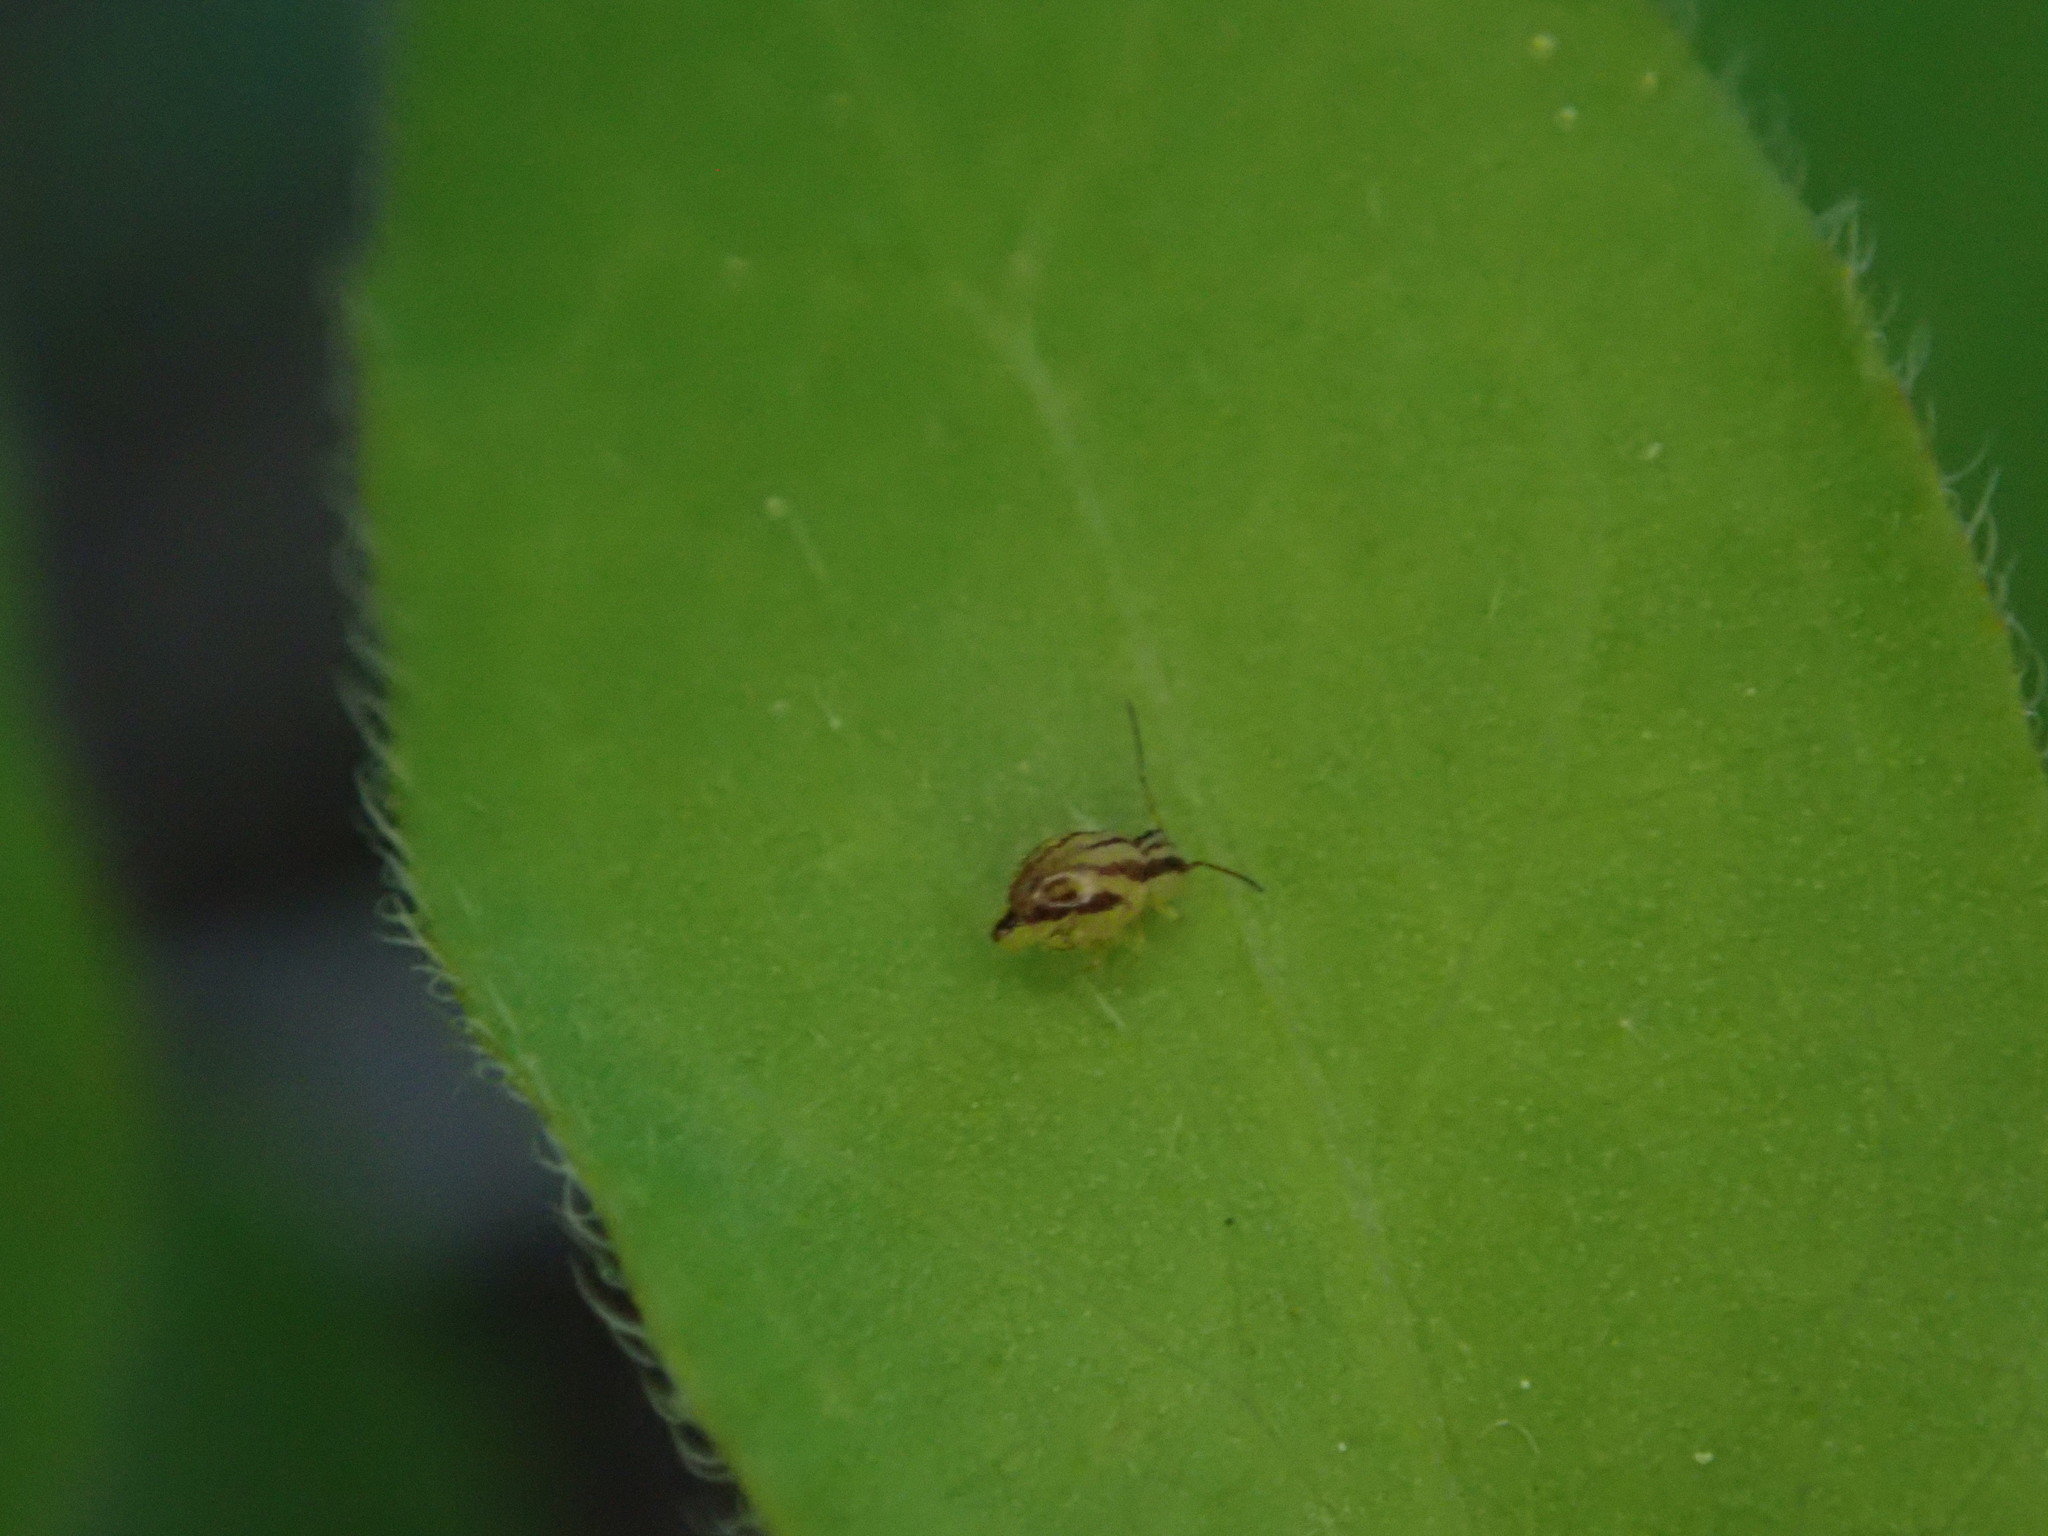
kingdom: Animalia
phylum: Arthropoda
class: Collembola
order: Symphypleona
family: Sminthuridae
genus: Sminthurus
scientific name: Sminthurus mencenbergae
